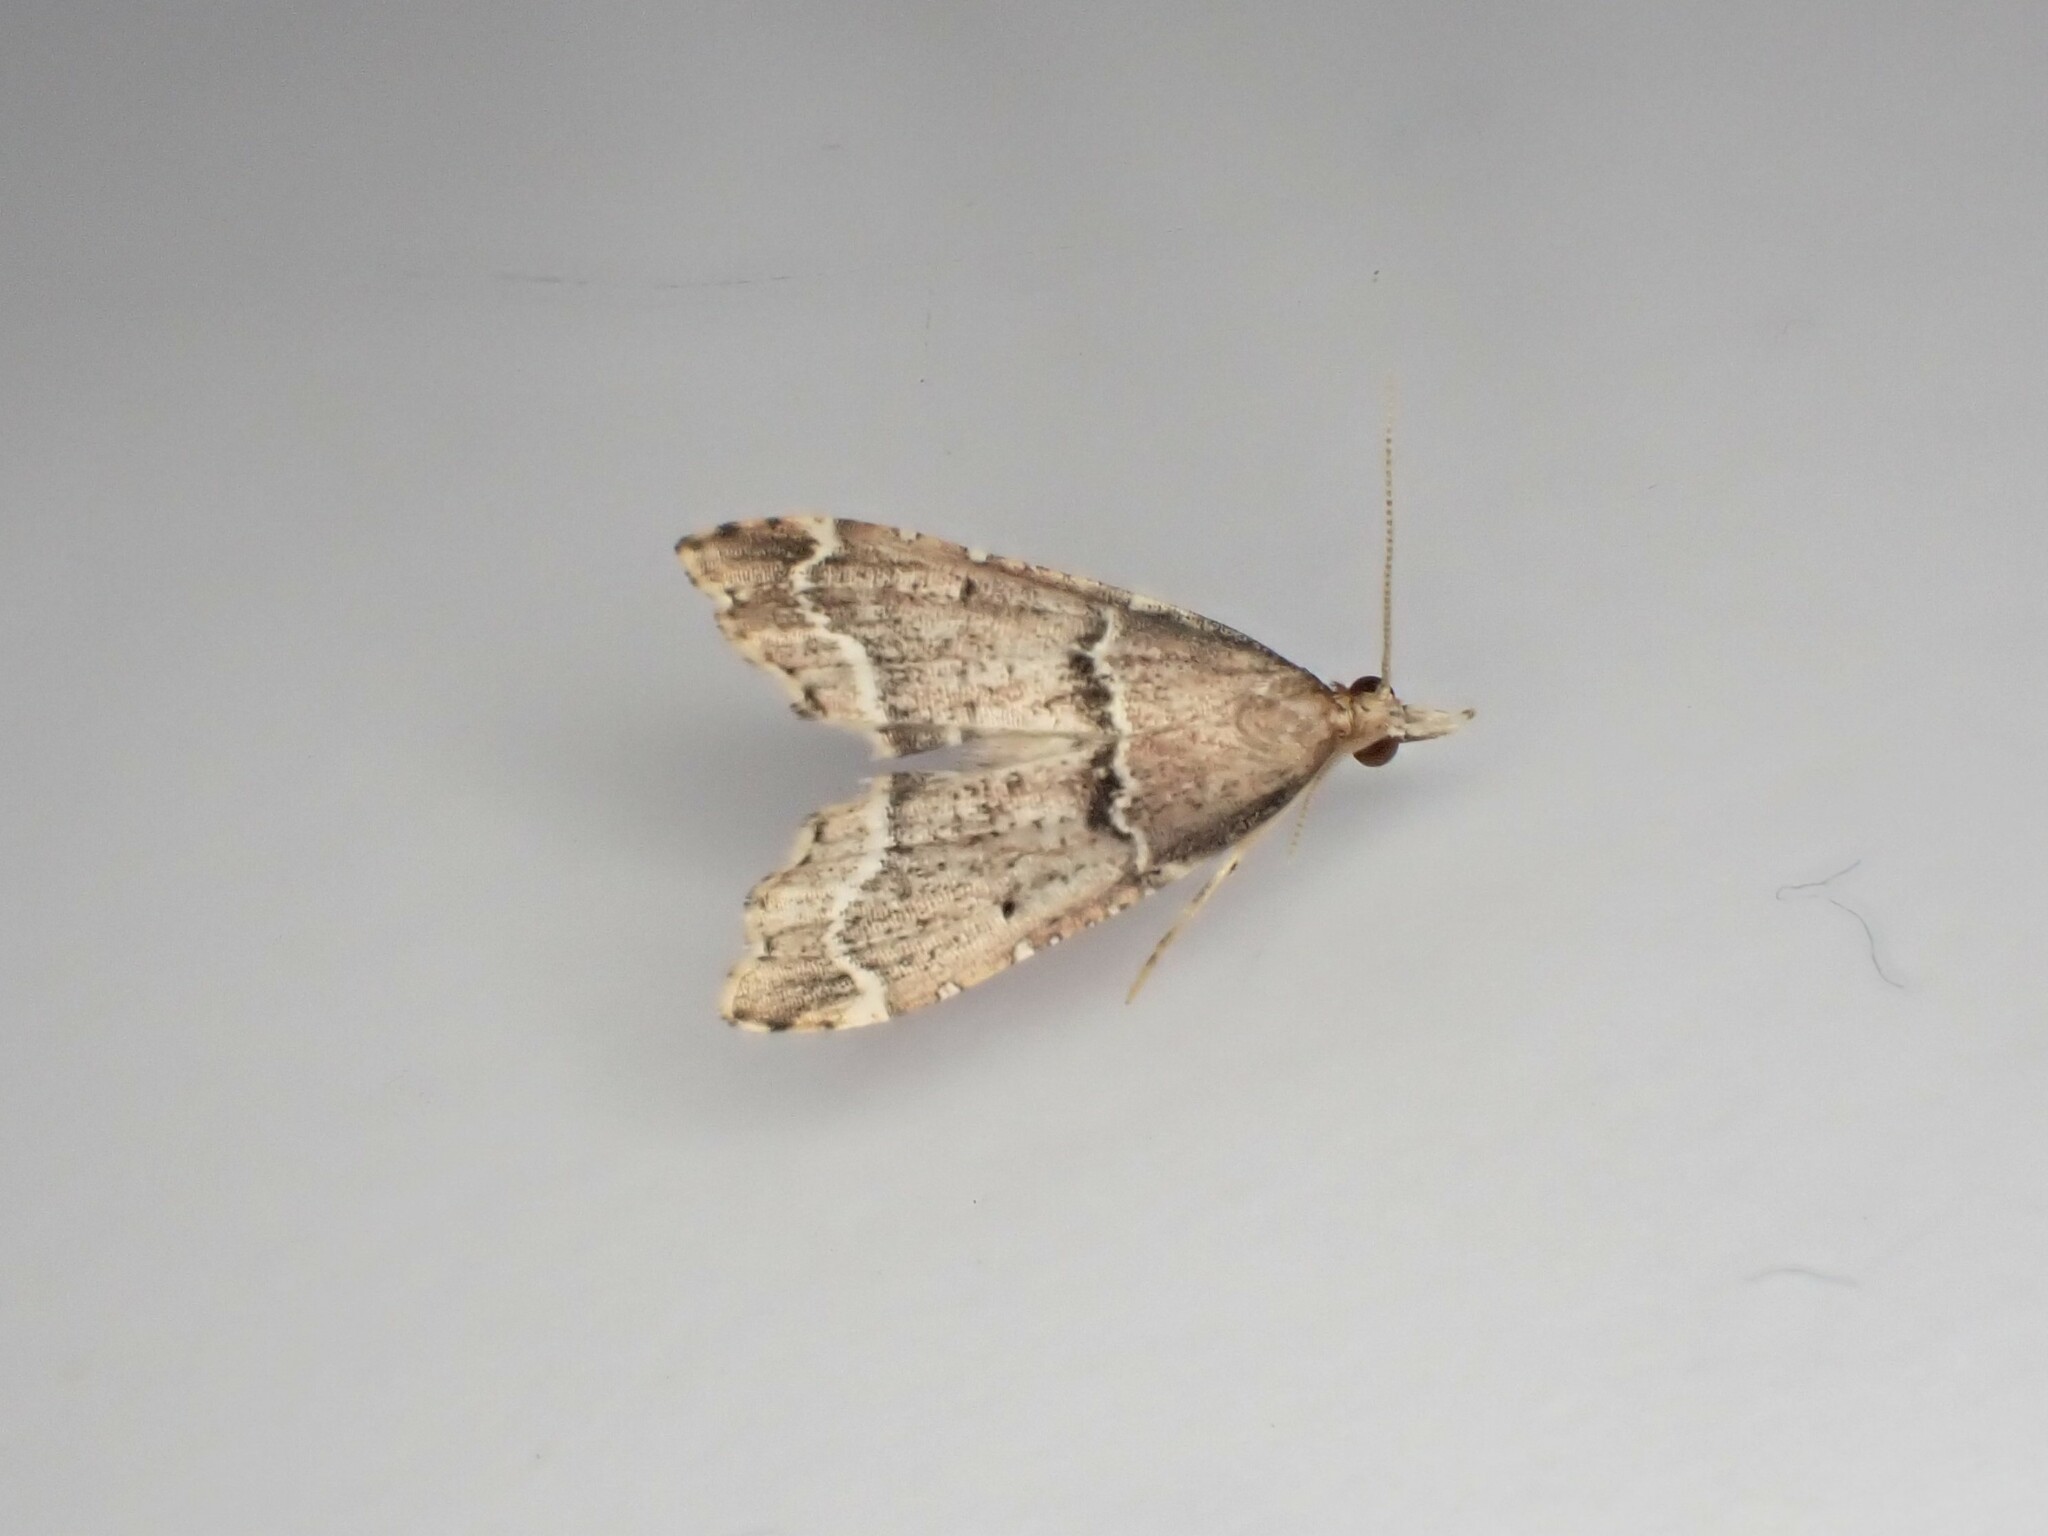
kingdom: Animalia
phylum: Arthropoda
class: Insecta
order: Lepidoptera
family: Crambidae
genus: Diplopseustis
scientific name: Diplopseustis perieresalis
